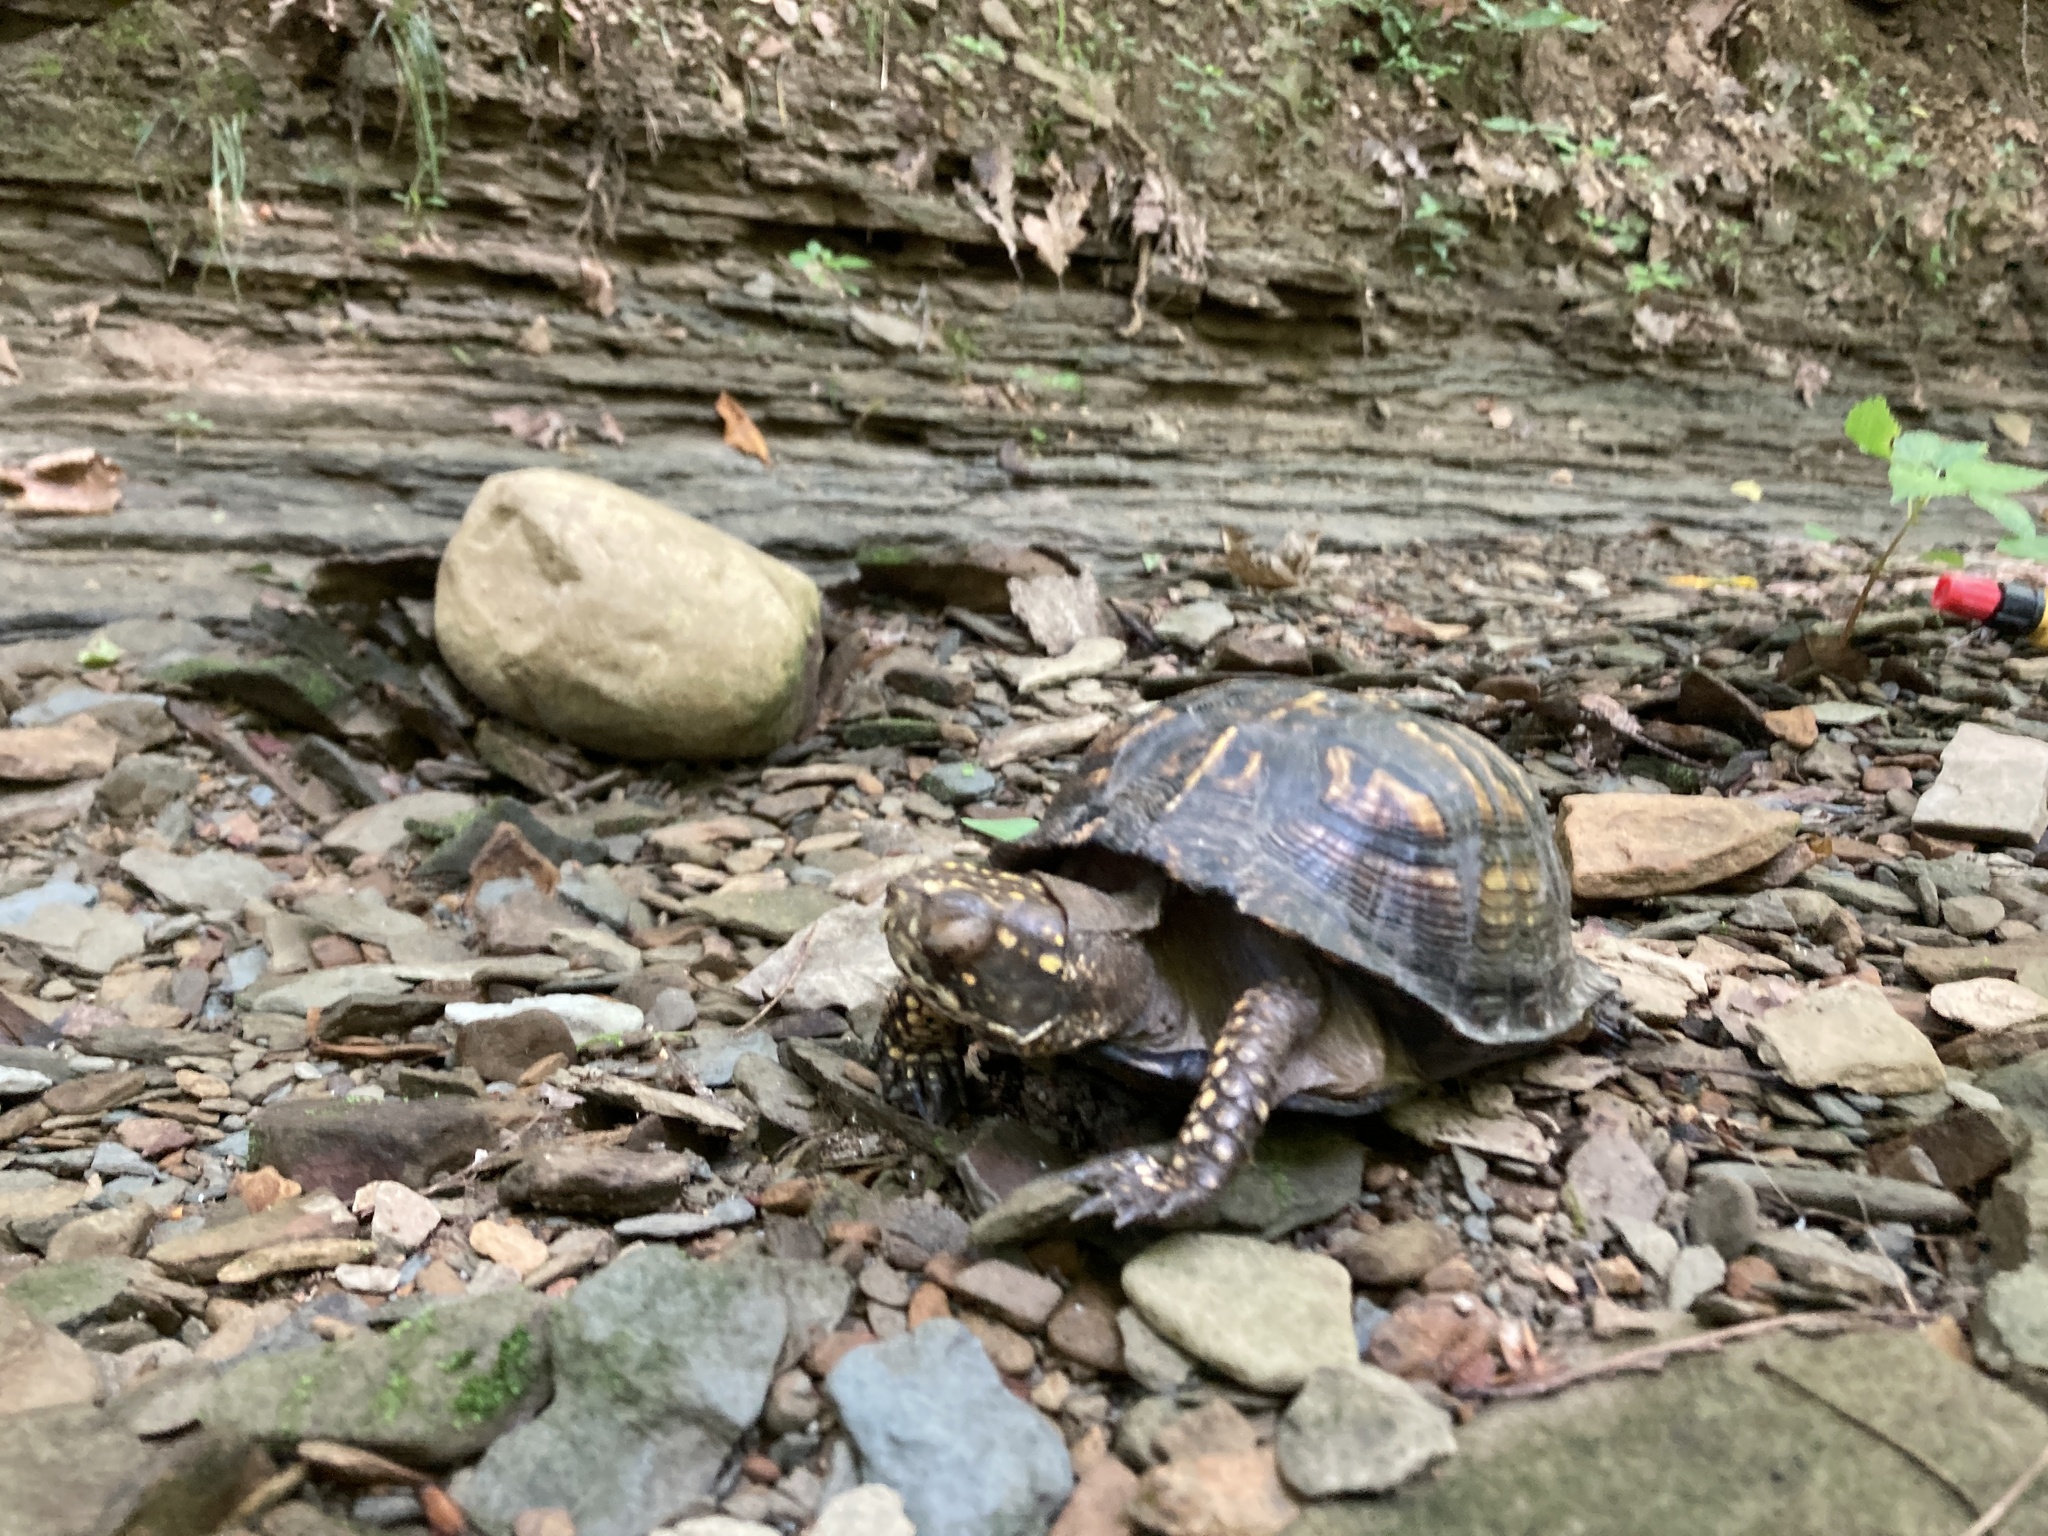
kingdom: Animalia
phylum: Chordata
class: Testudines
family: Emydidae
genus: Terrapene
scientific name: Terrapene carolina
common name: Common box turtle
